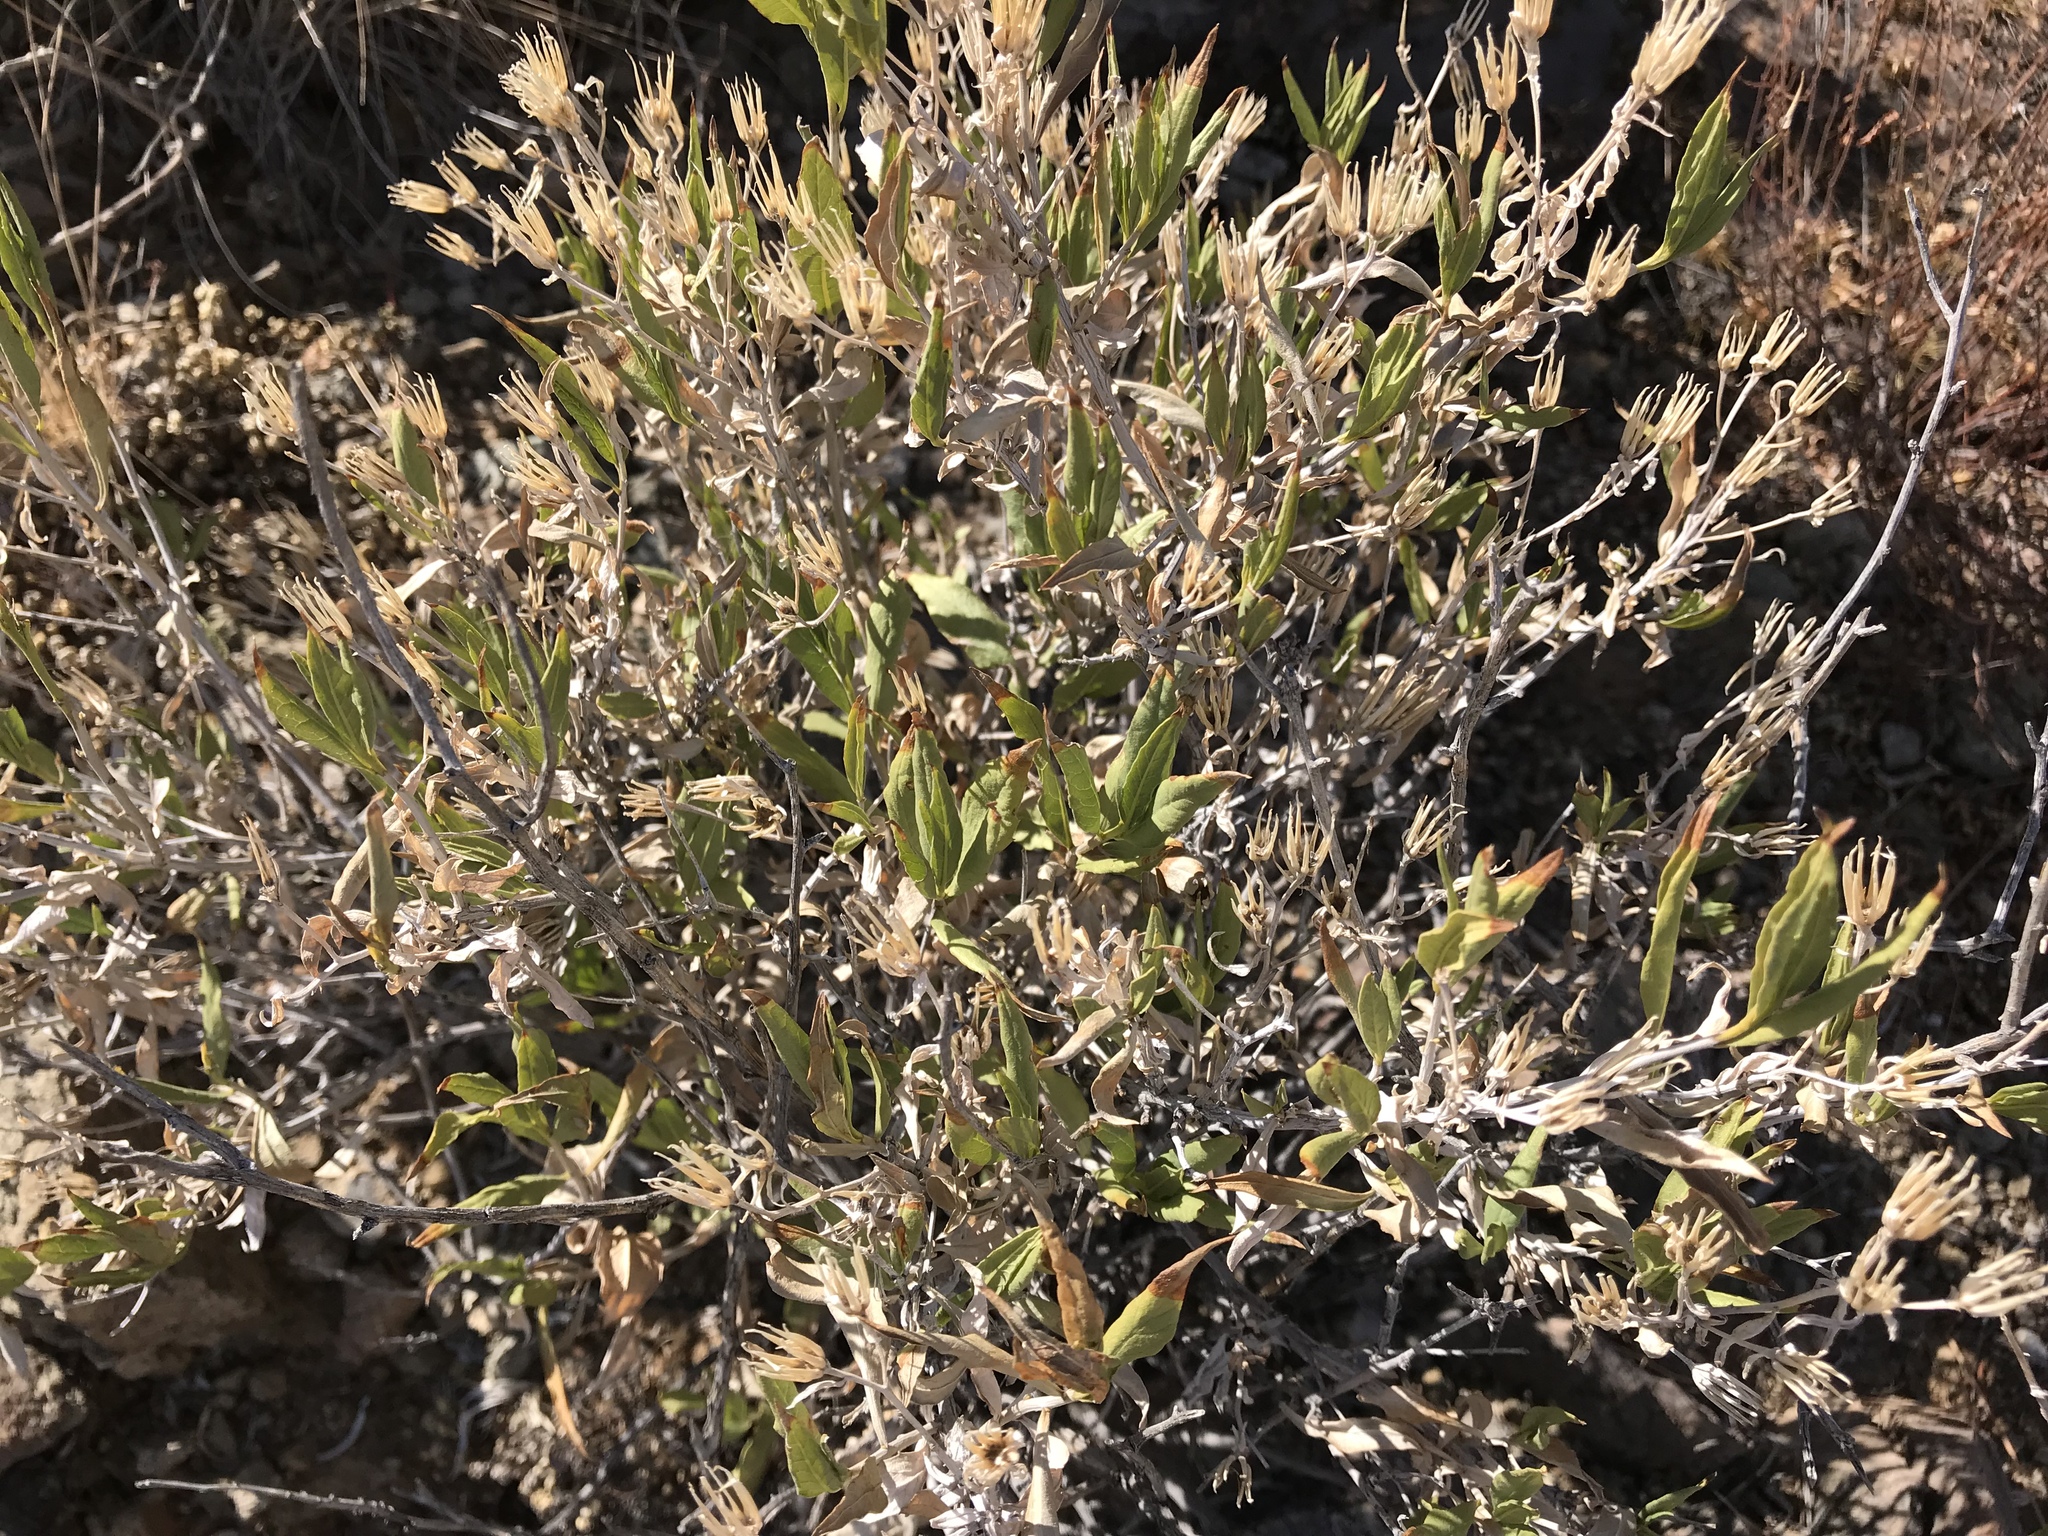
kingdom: Plantae
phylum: Tracheophyta
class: Magnoliopsida
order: Asterales
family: Asteraceae
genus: Trixis
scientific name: Trixis californica
